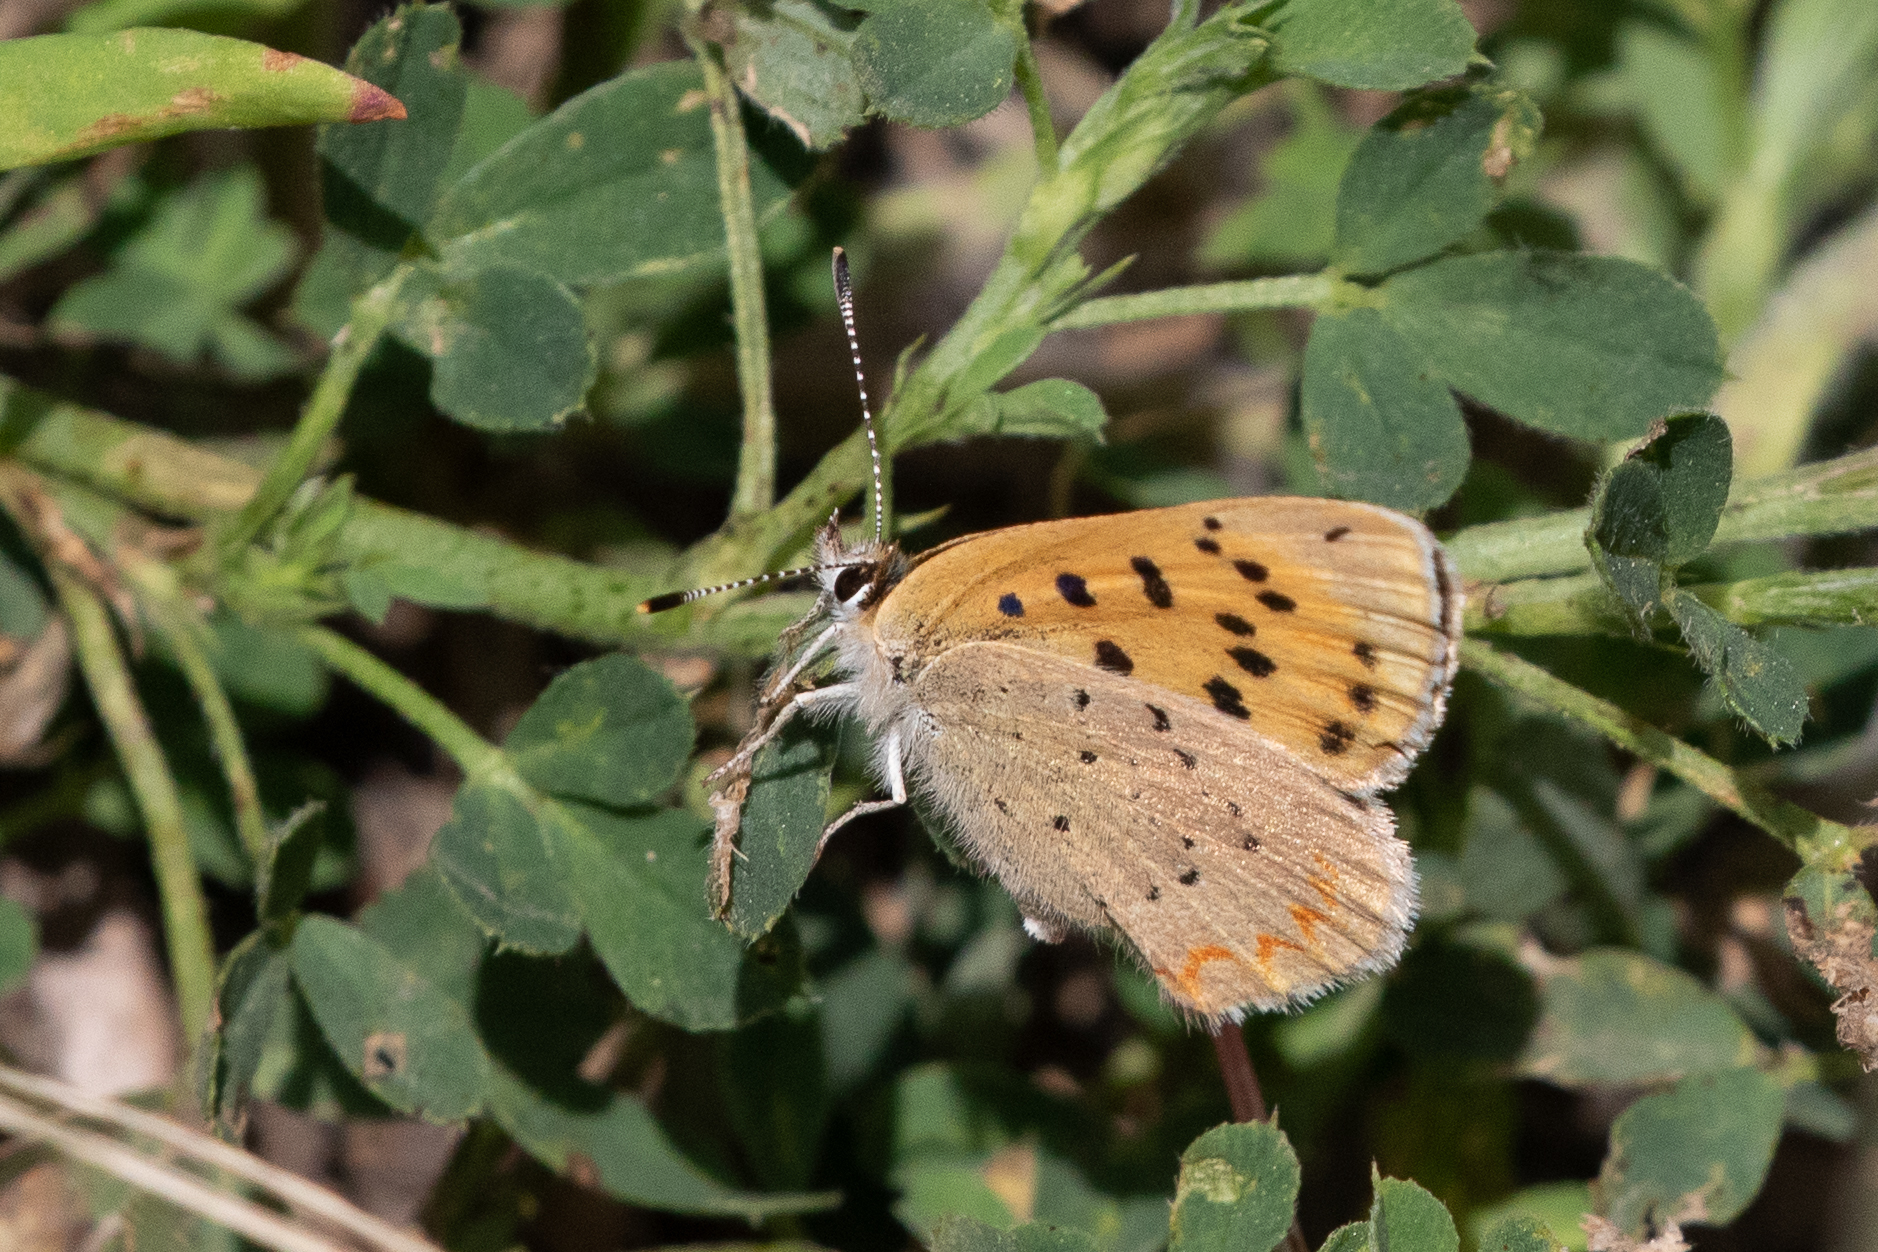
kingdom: Animalia
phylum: Arthropoda
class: Insecta
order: Lepidoptera
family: Lycaenidae
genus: Tharsalea
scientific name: Tharsalea helloides
